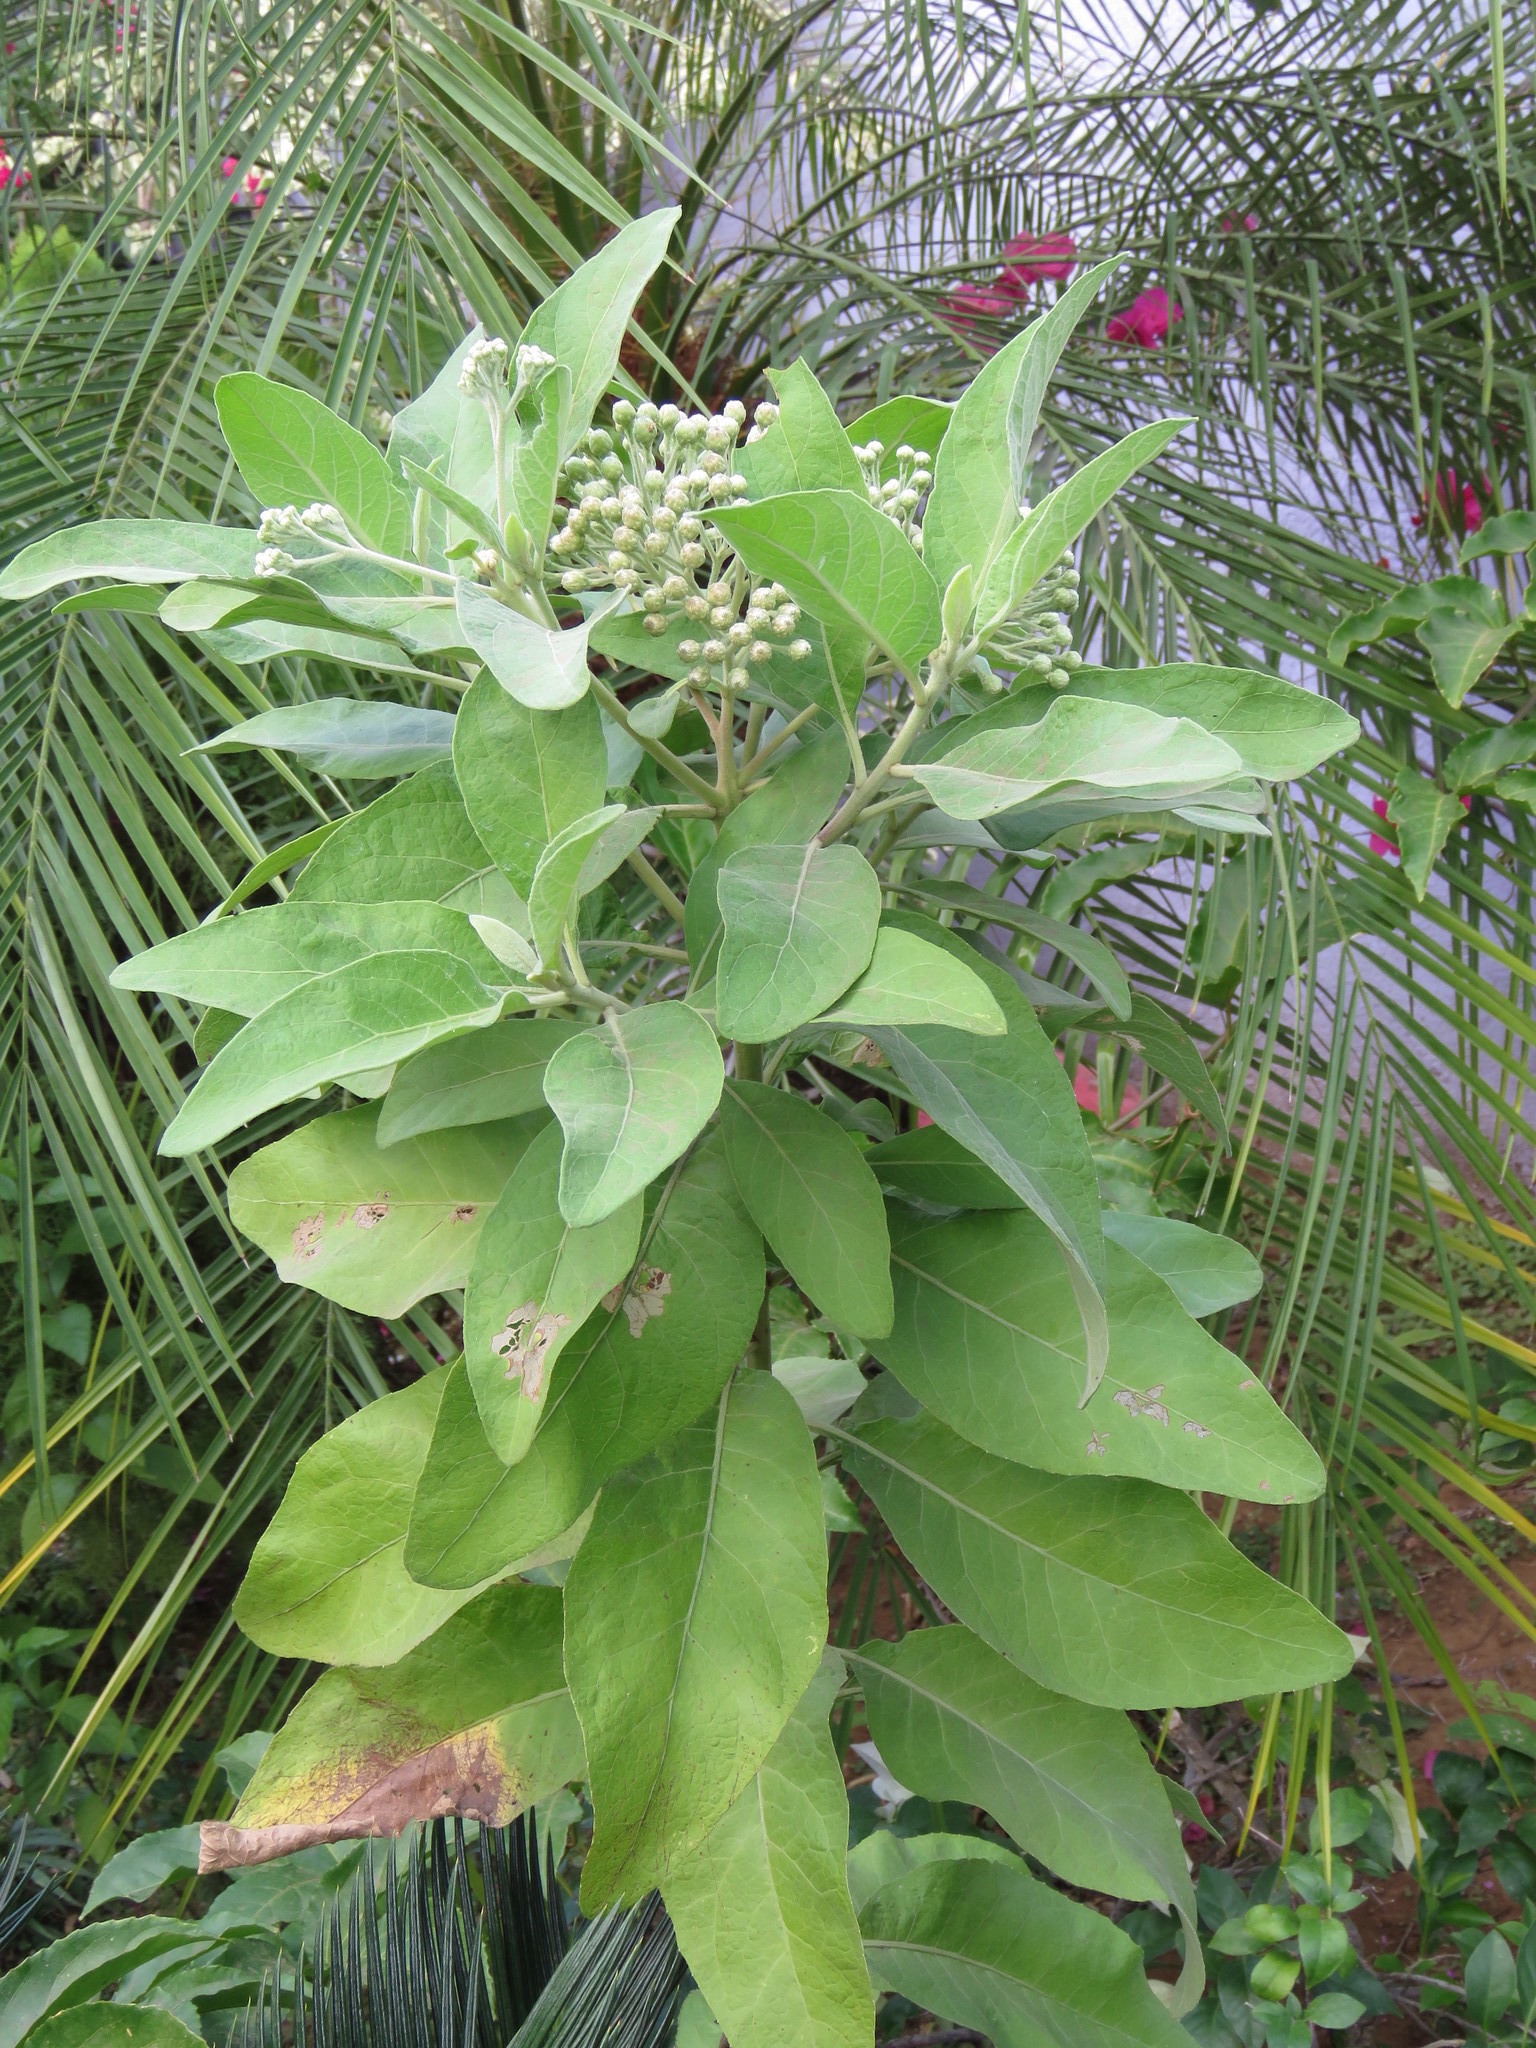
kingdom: Plantae
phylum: Tracheophyta
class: Magnoliopsida
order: Asterales
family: Asteraceae
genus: Pluchea
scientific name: Pluchea carolinensis
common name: Marsh fleabane
